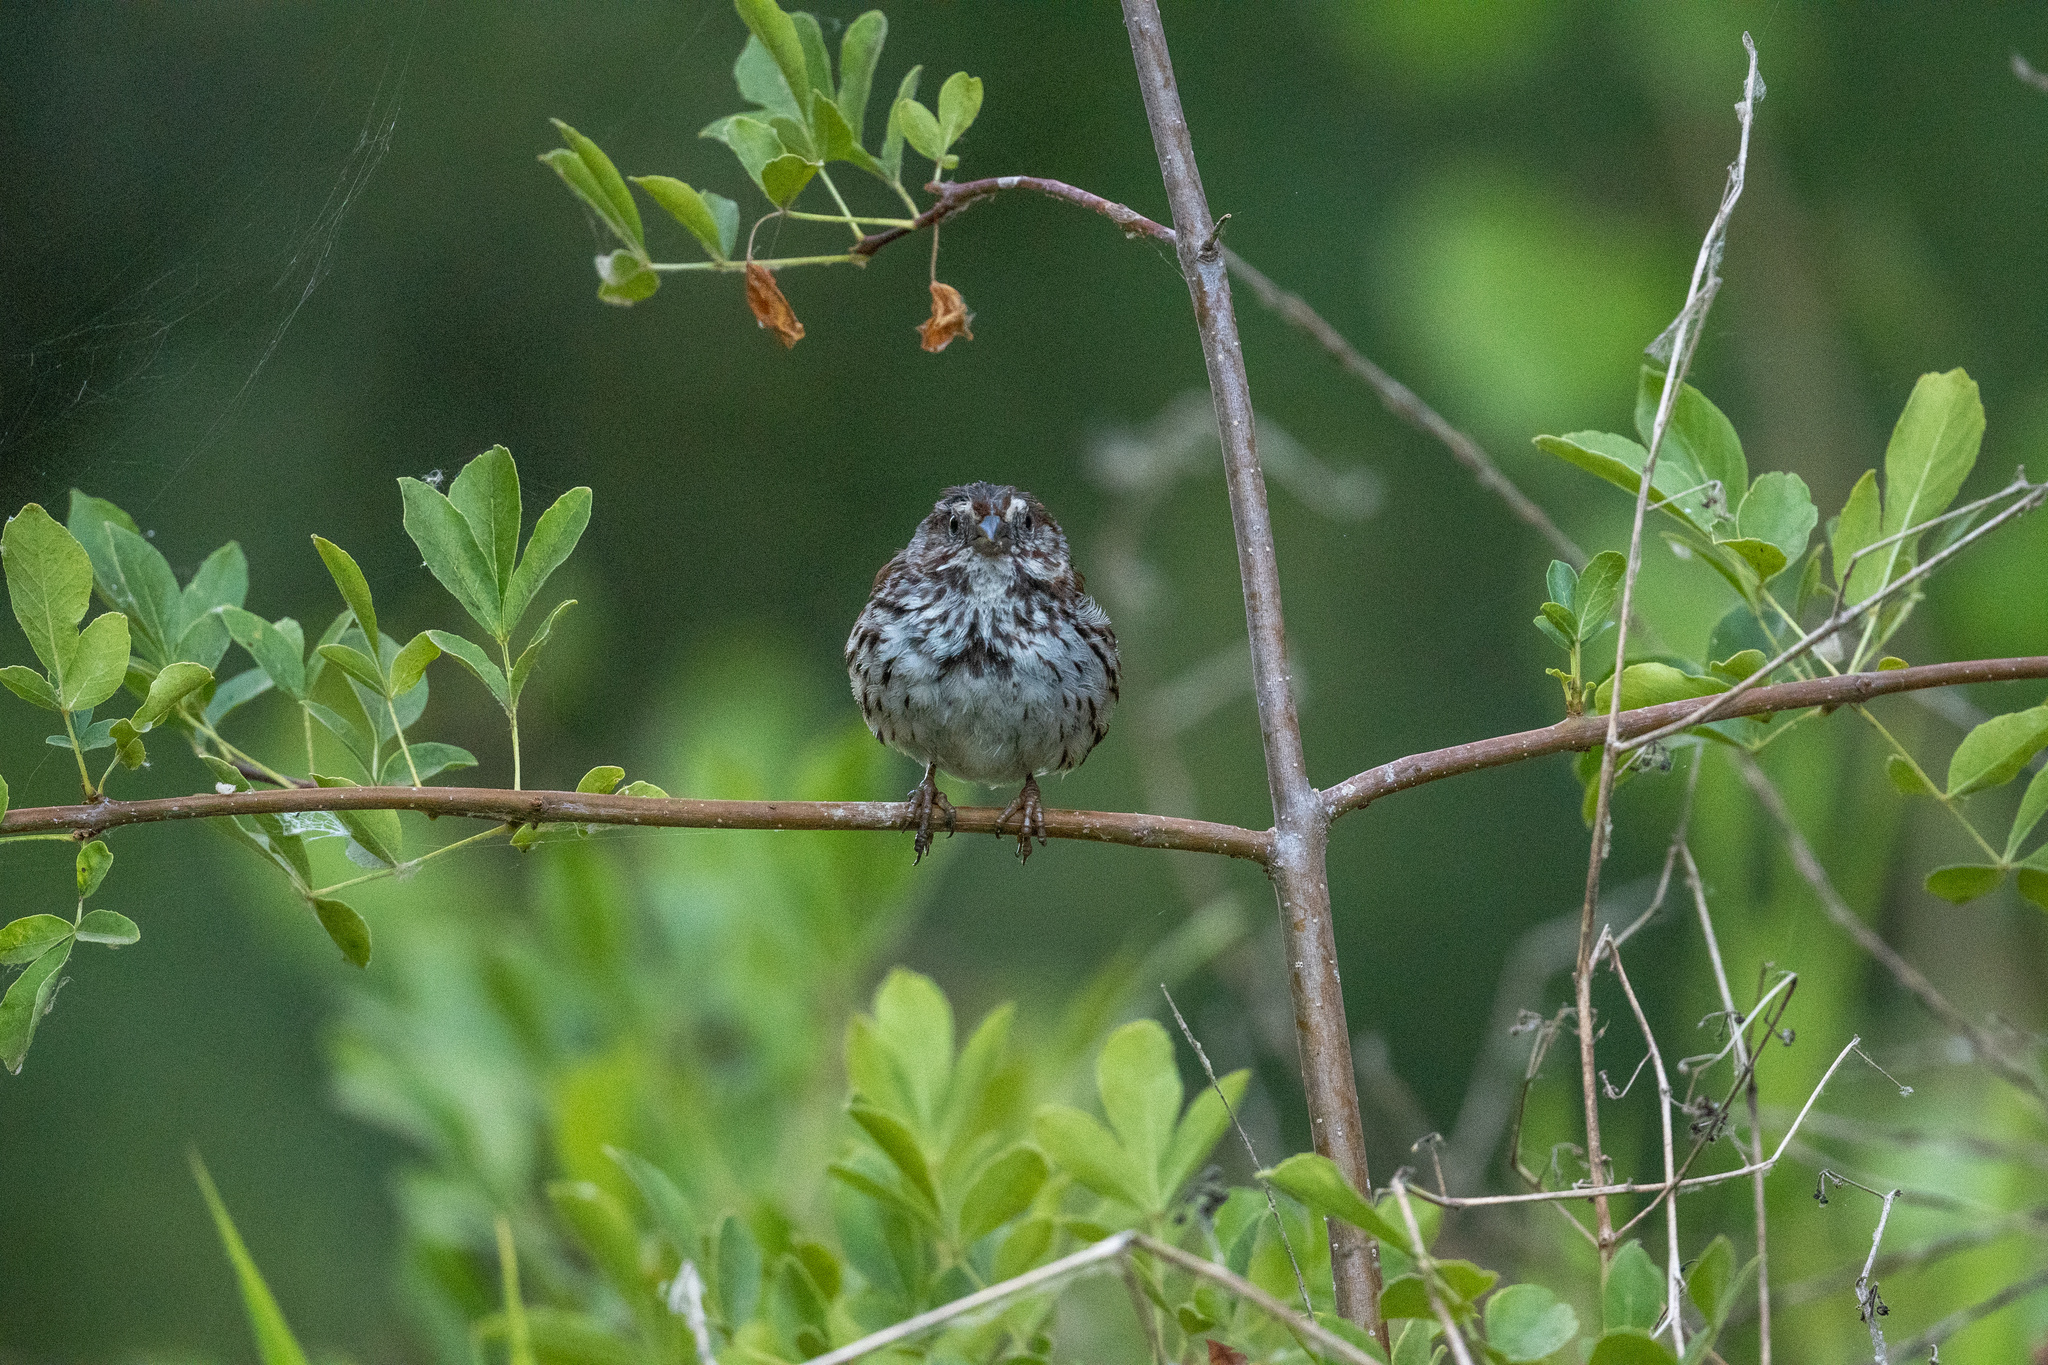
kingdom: Animalia
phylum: Chordata
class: Aves
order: Passeriformes
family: Passerellidae
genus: Melospiza
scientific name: Melospiza melodia
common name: Song sparrow
